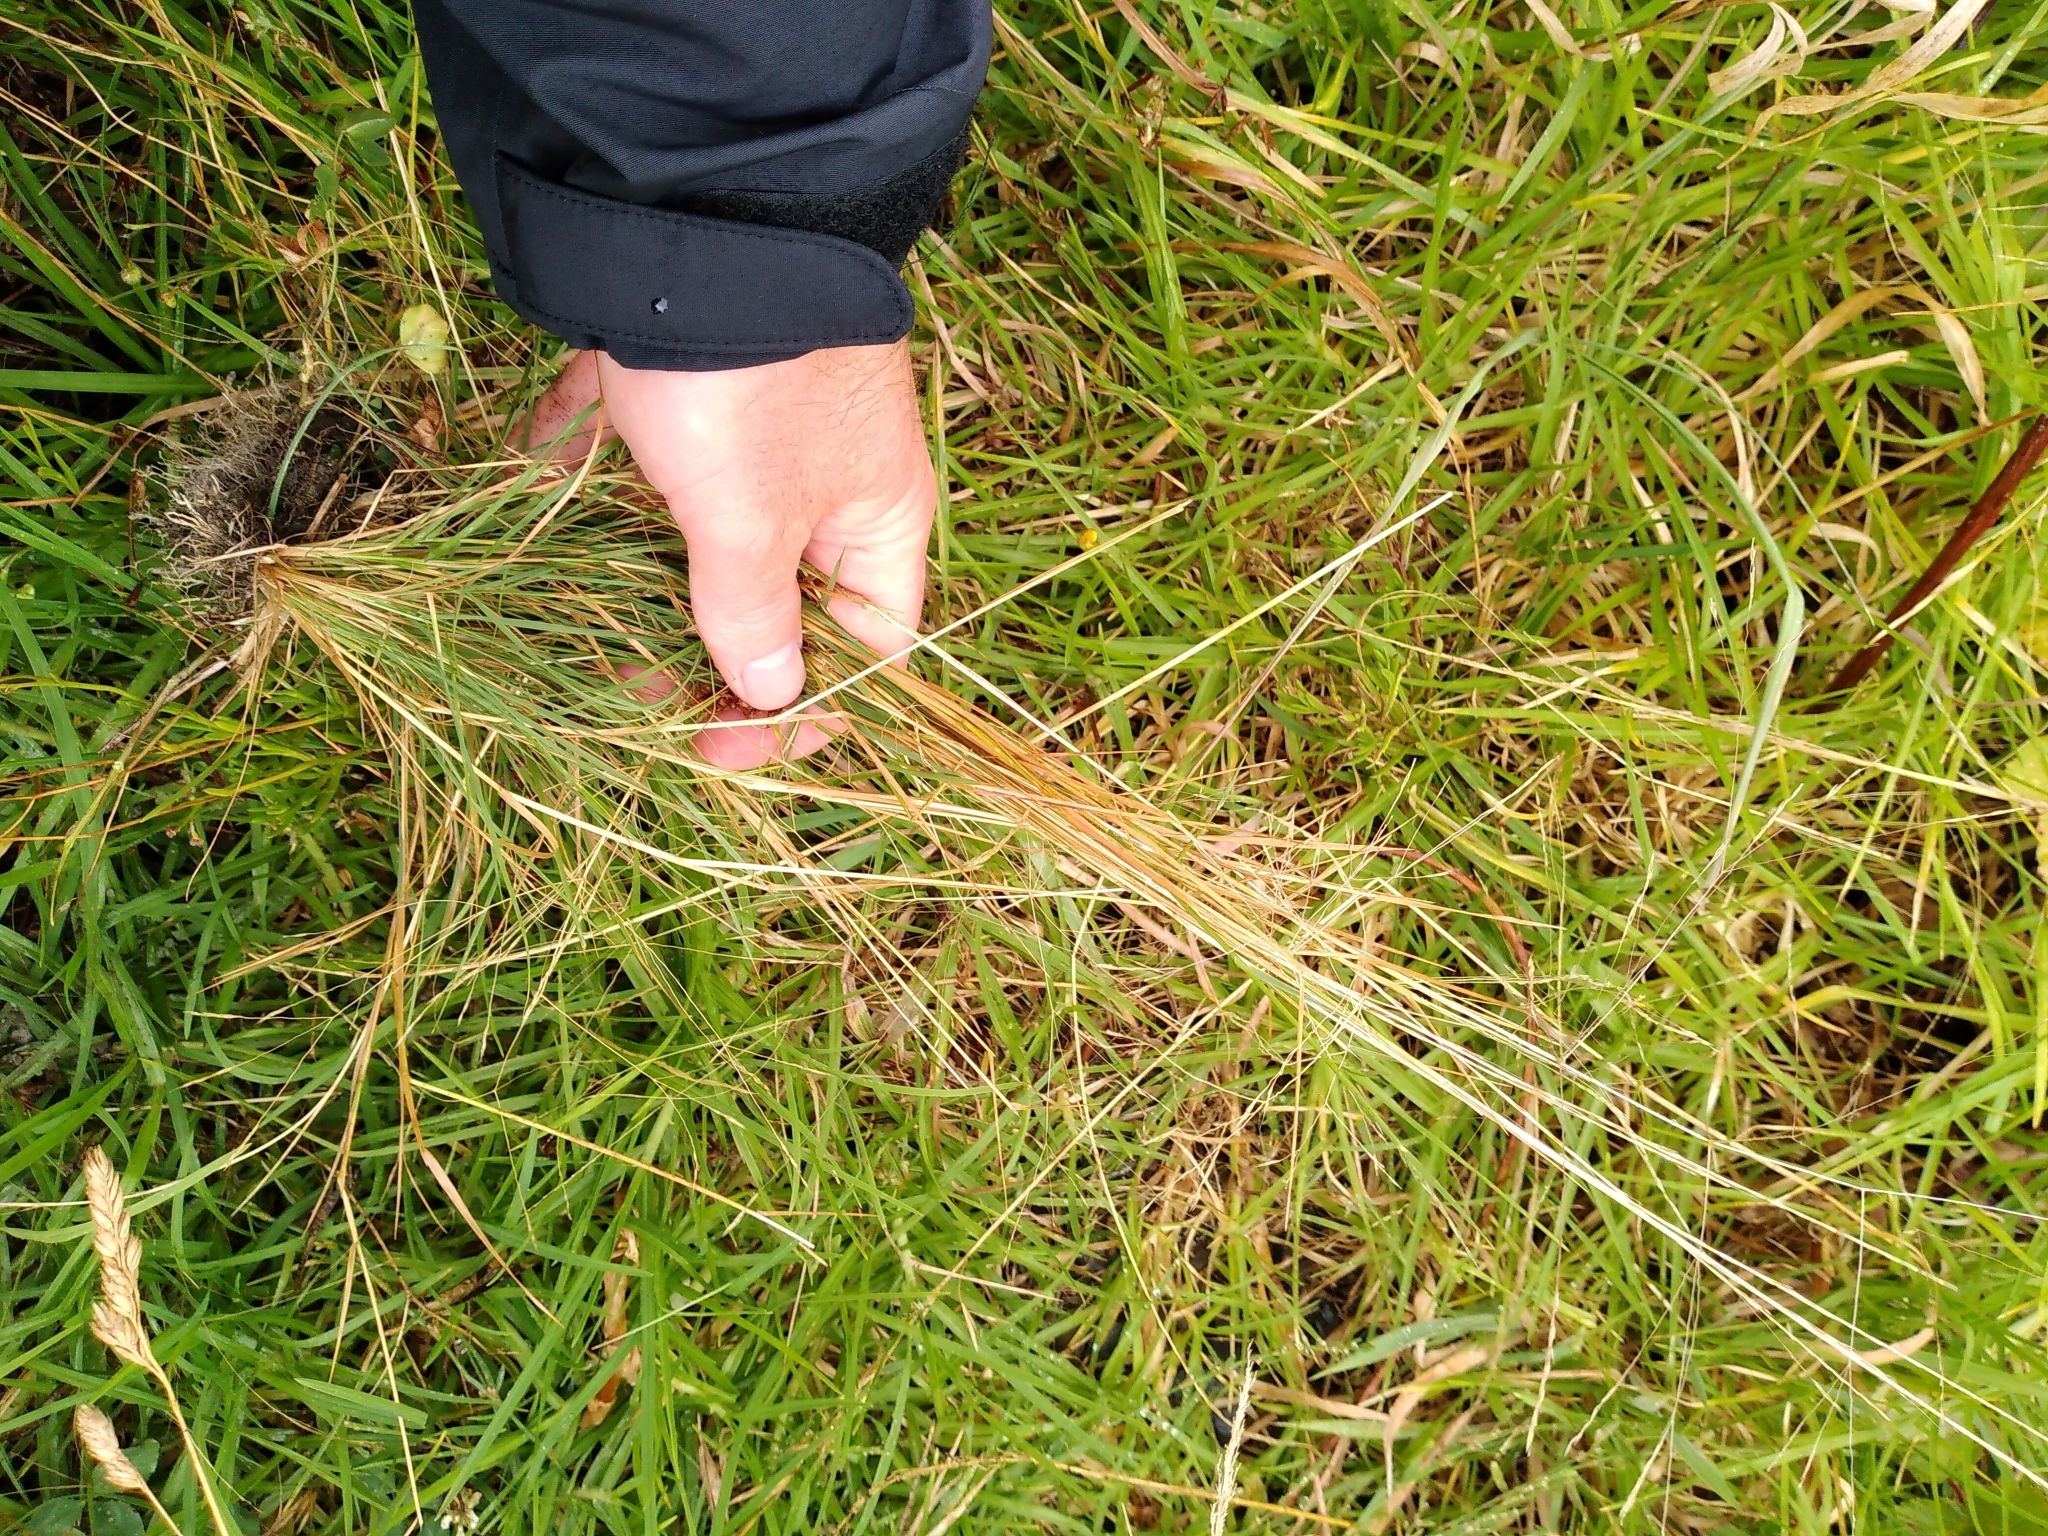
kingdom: Plantae
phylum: Tracheophyta
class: Liliopsida
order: Poales
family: Poaceae
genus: Lachnagrostis
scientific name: Lachnagrostis filiformis
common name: Bentgrass
